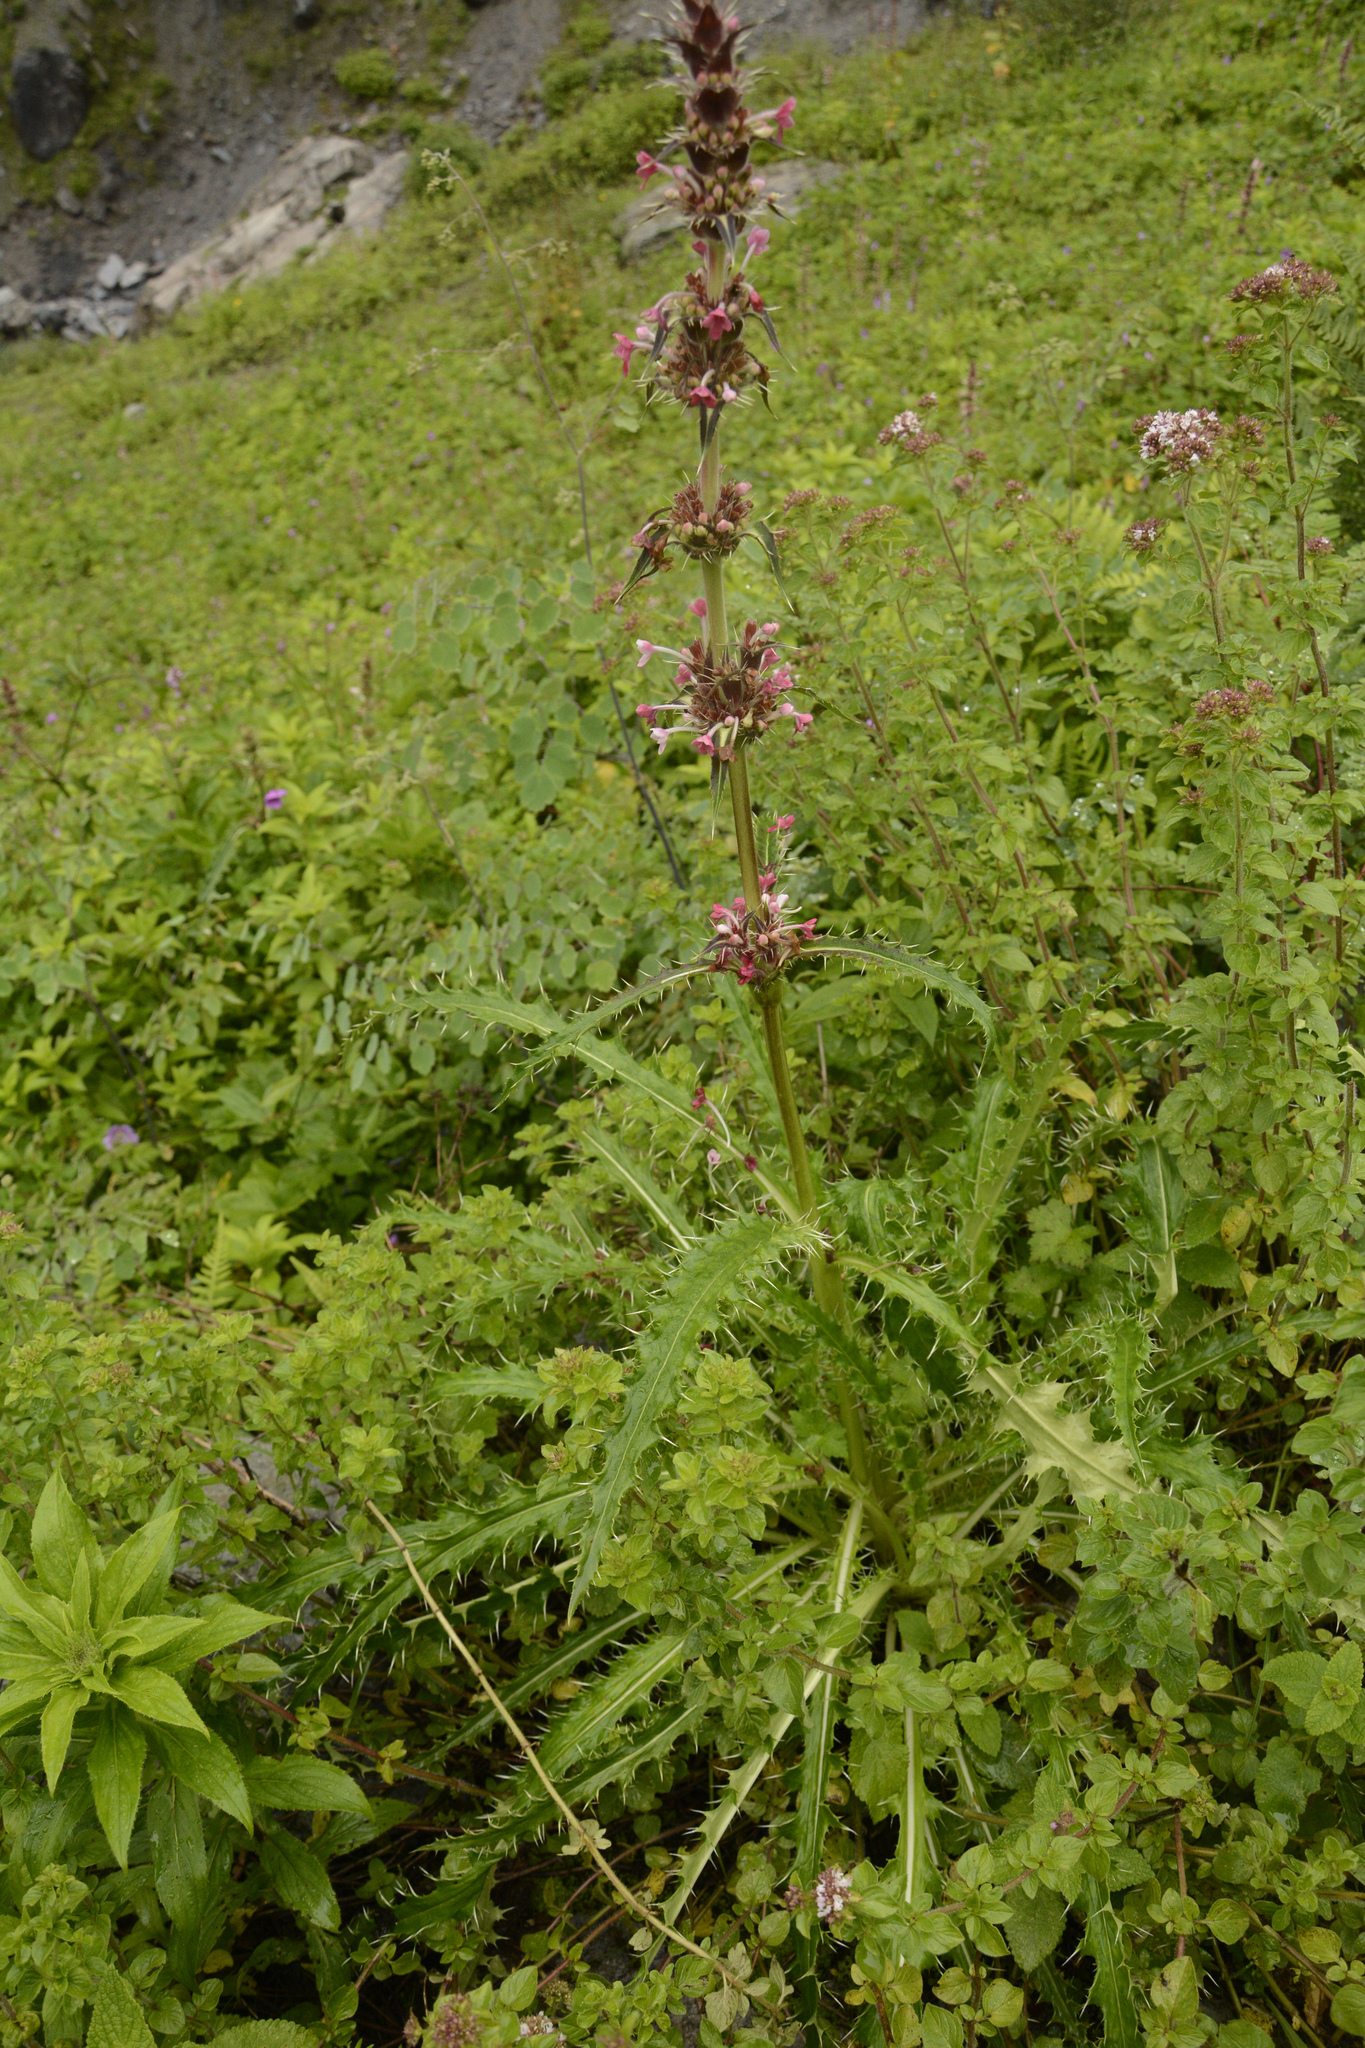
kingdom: Plantae
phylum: Tracheophyta
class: Magnoliopsida
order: Dipsacales
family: Caprifoliaceae
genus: Morina
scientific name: Morina longifolia
